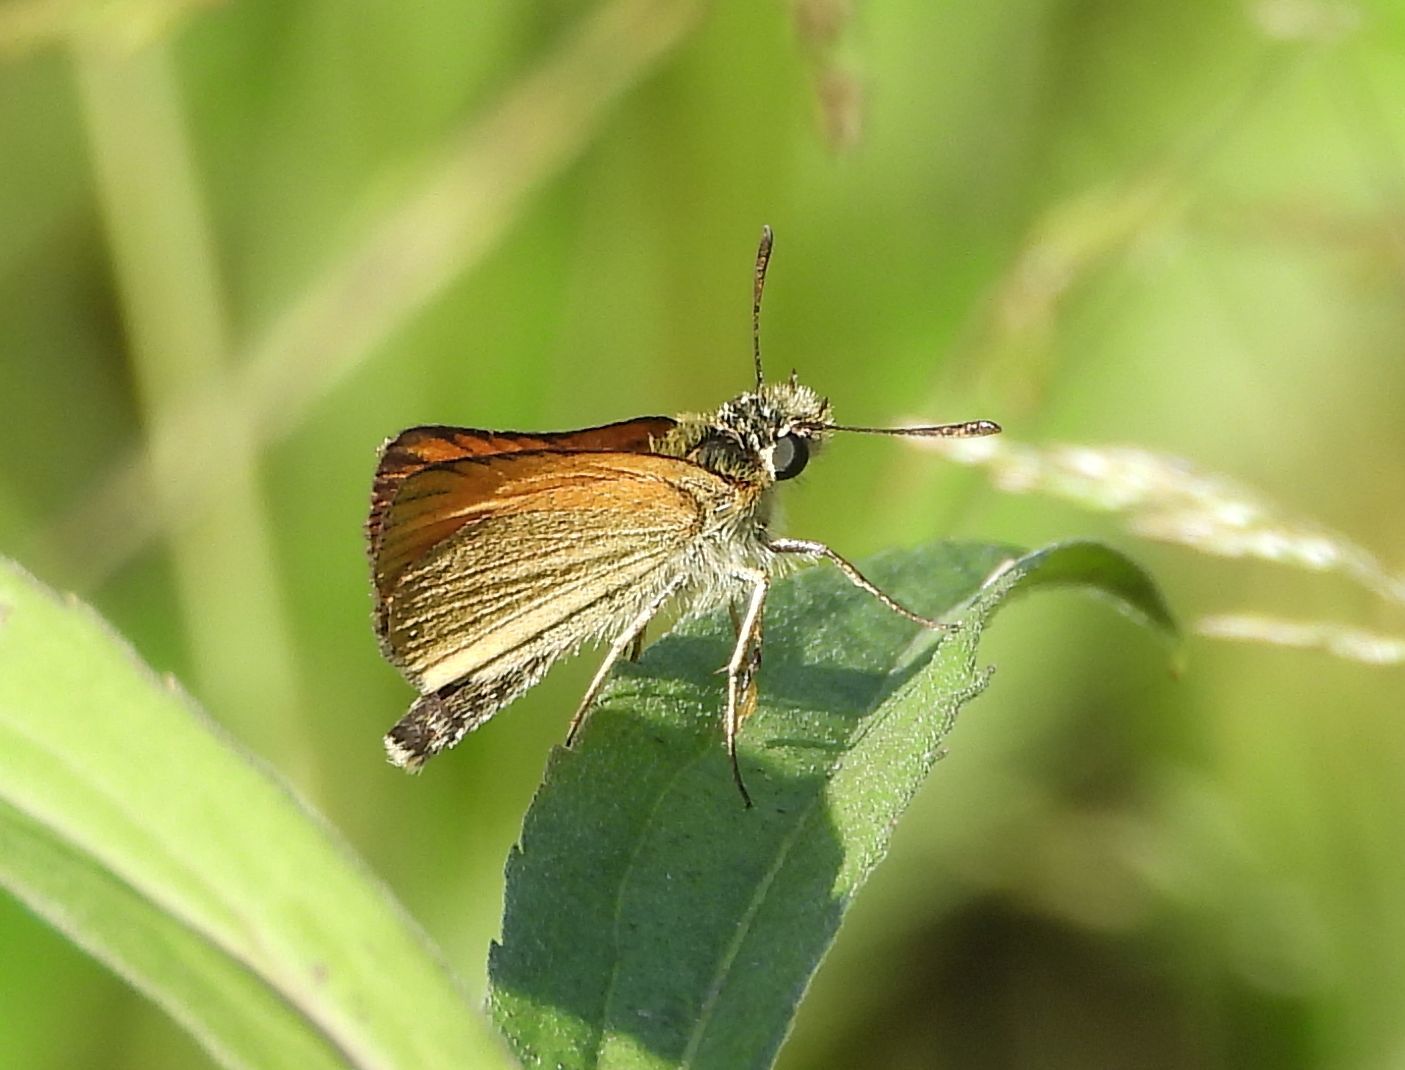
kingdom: Animalia
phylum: Arthropoda
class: Insecta
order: Lepidoptera
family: Hesperiidae
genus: Thymelicus
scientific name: Thymelicus lineola
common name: Essex skipper
